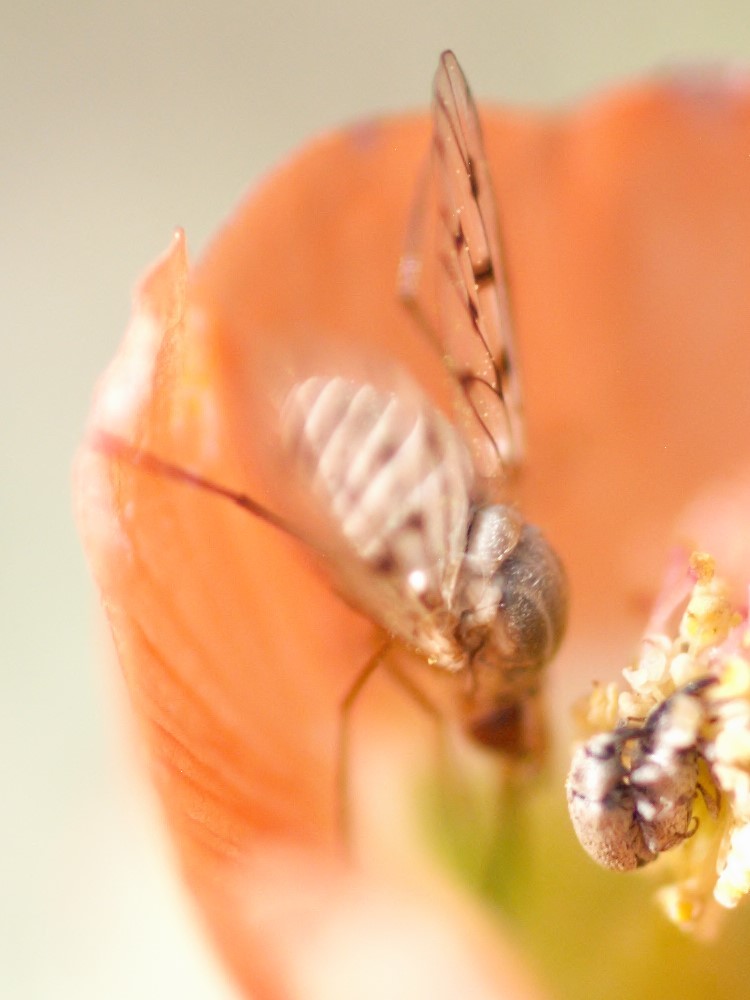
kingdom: Animalia
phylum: Arthropoda
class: Insecta
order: Diptera
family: Bombyliidae
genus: Poecilognathus
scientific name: Poecilognathus
